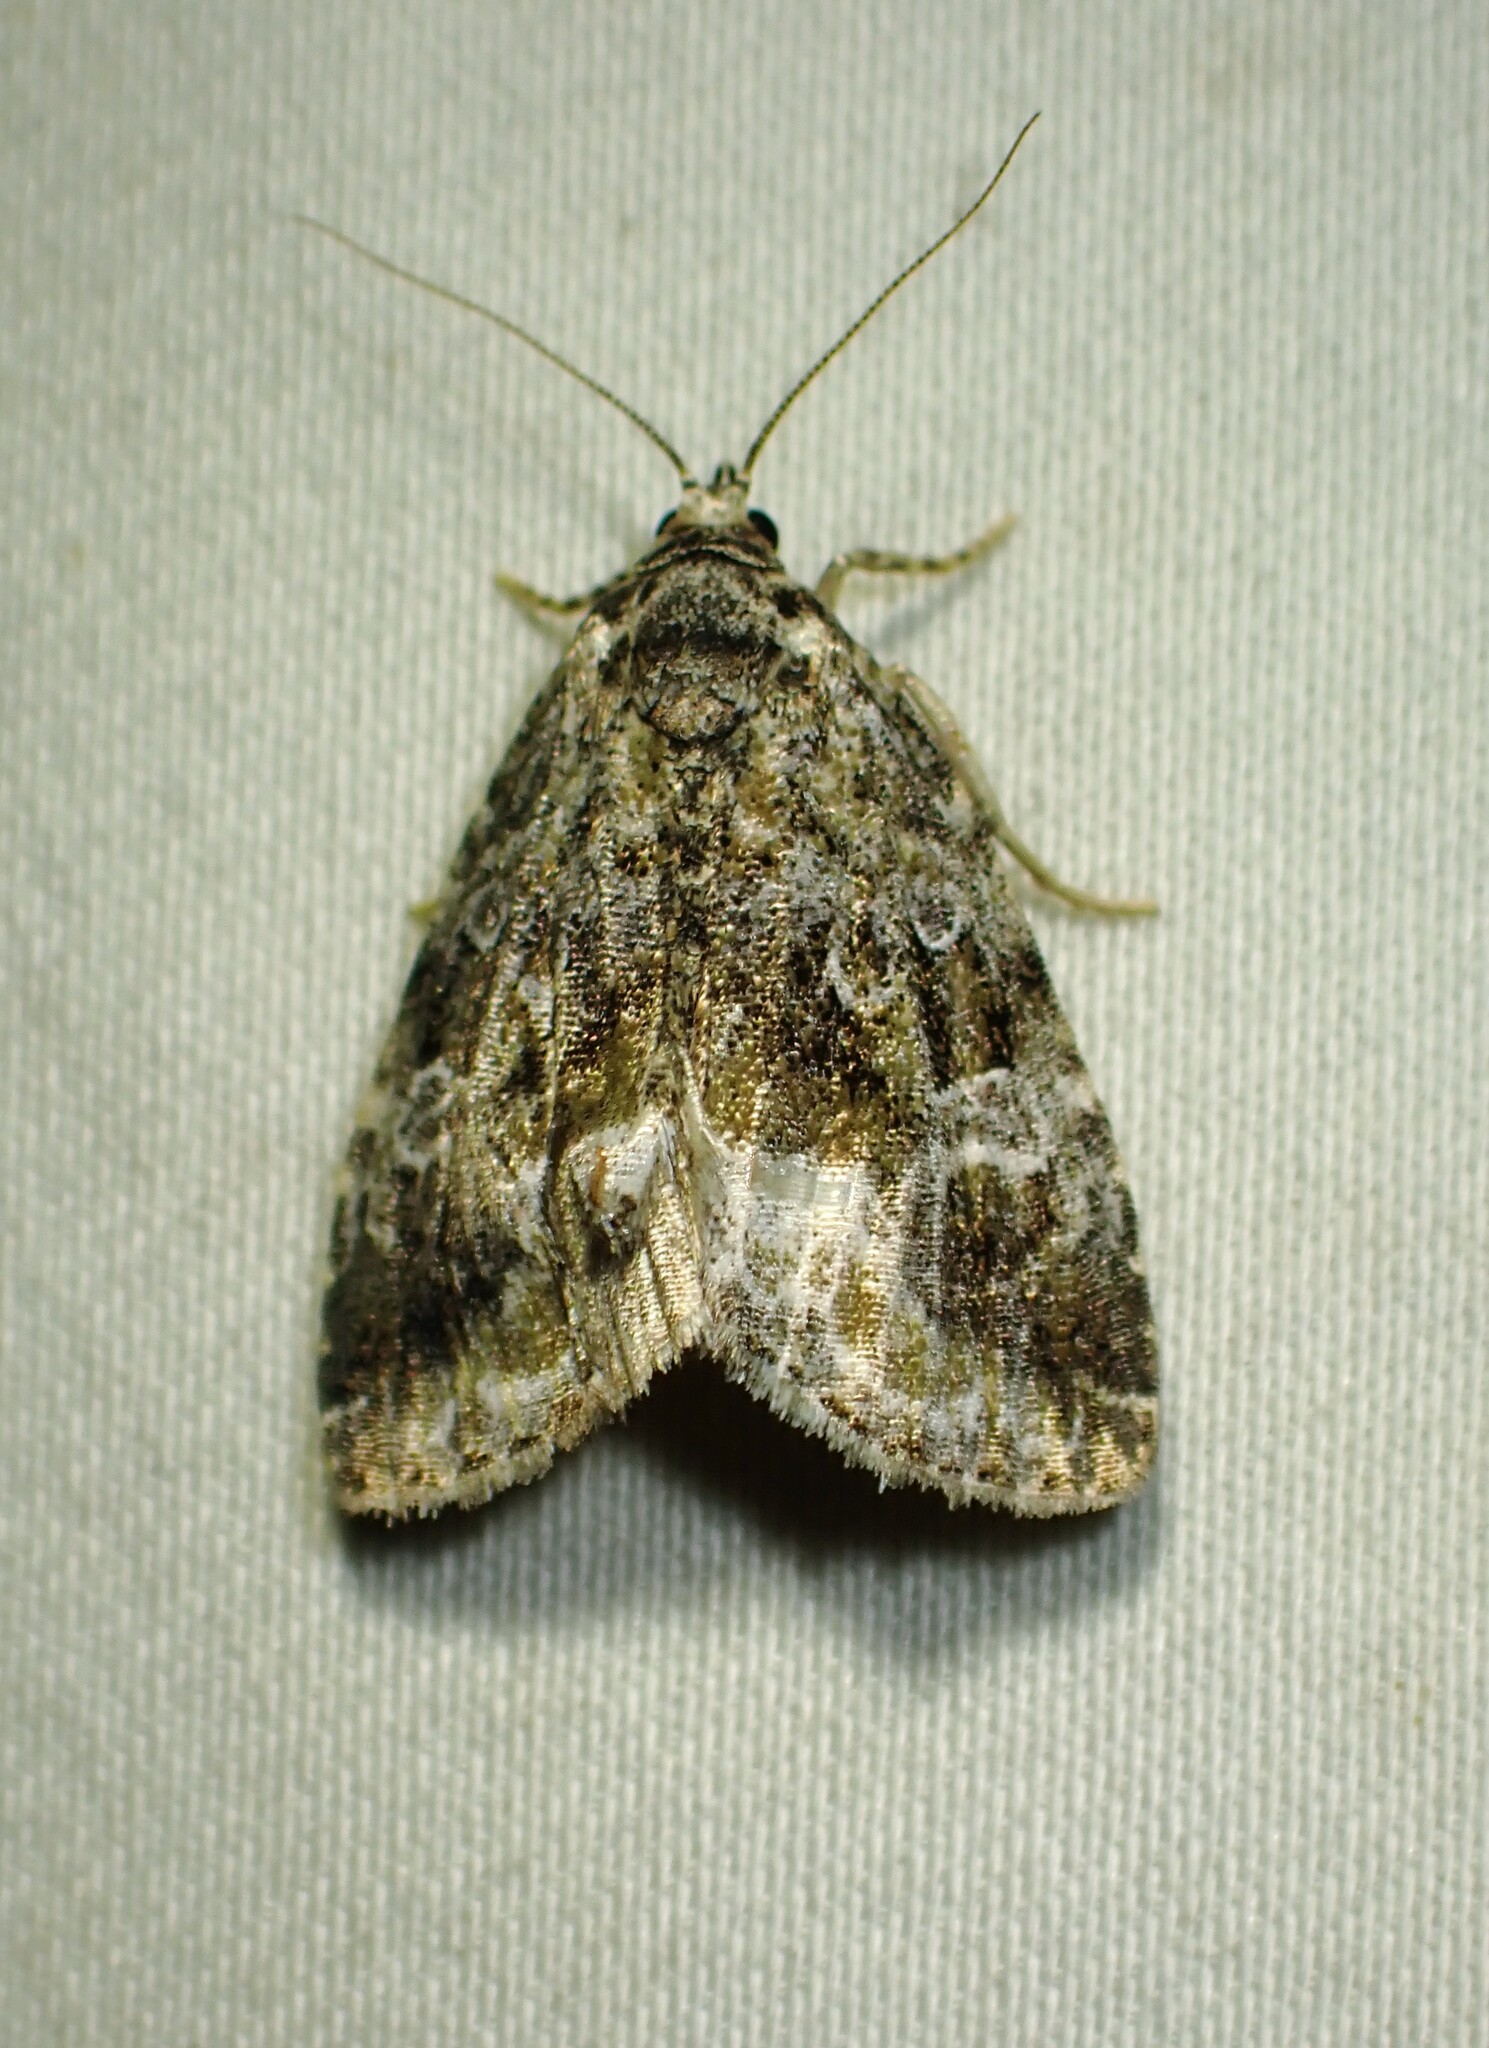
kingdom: Animalia
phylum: Arthropoda
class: Insecta
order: Lepidoptera
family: Noctuidae
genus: Protodeltote
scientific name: Protodeltote muscosula
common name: Large mossy glyph
